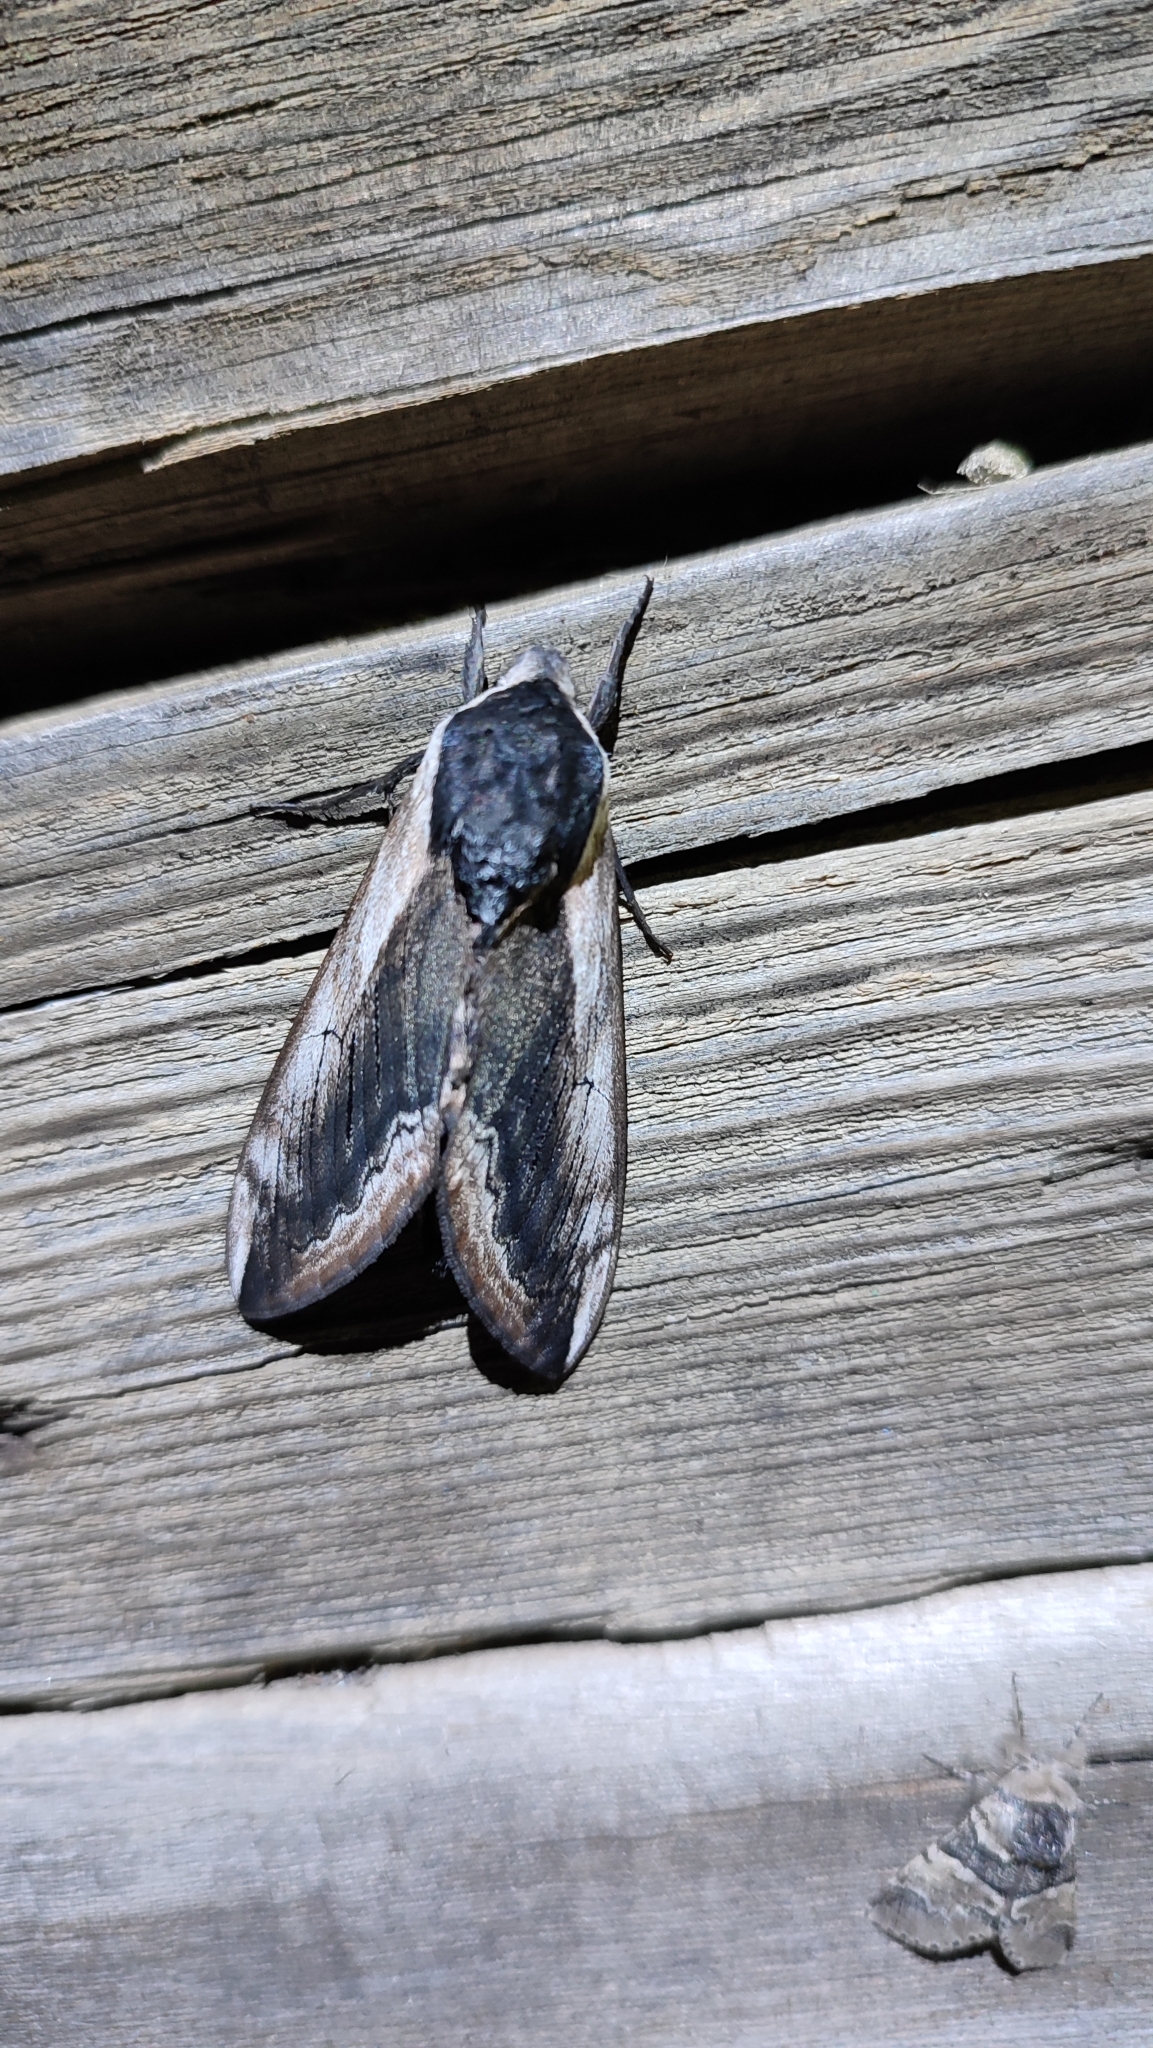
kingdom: Animalia
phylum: Arthropoda
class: Insecta
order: Lepidoptera
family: Sphingidae
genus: Sphinx
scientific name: Sphinx ligustri
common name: Privet hawk-moth
